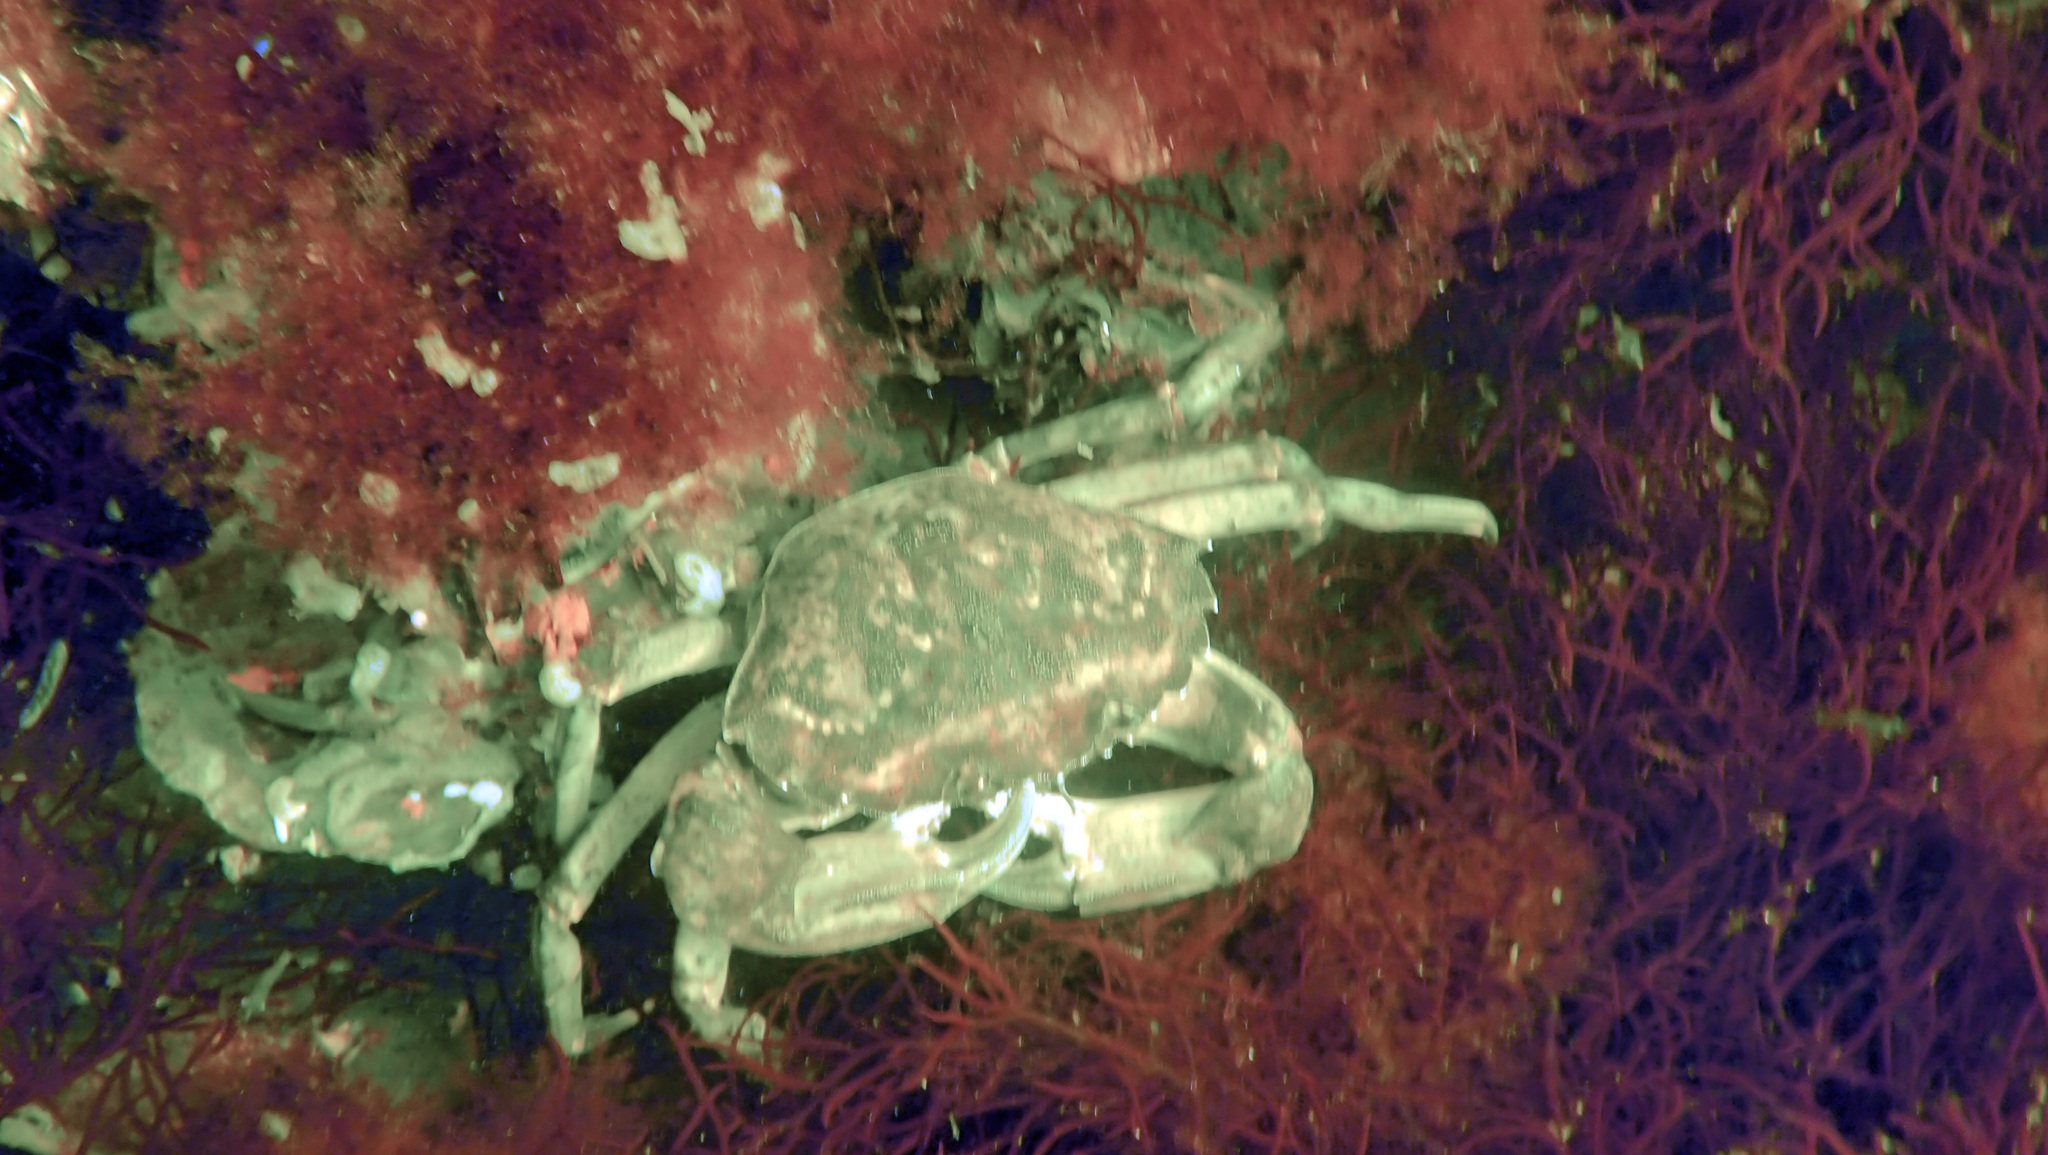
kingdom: Animalia
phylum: Arthropoda
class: Malacostraca
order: Decapoda
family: Carcinidae
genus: Carcinus
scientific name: Carcinus maenas
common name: European green crab
